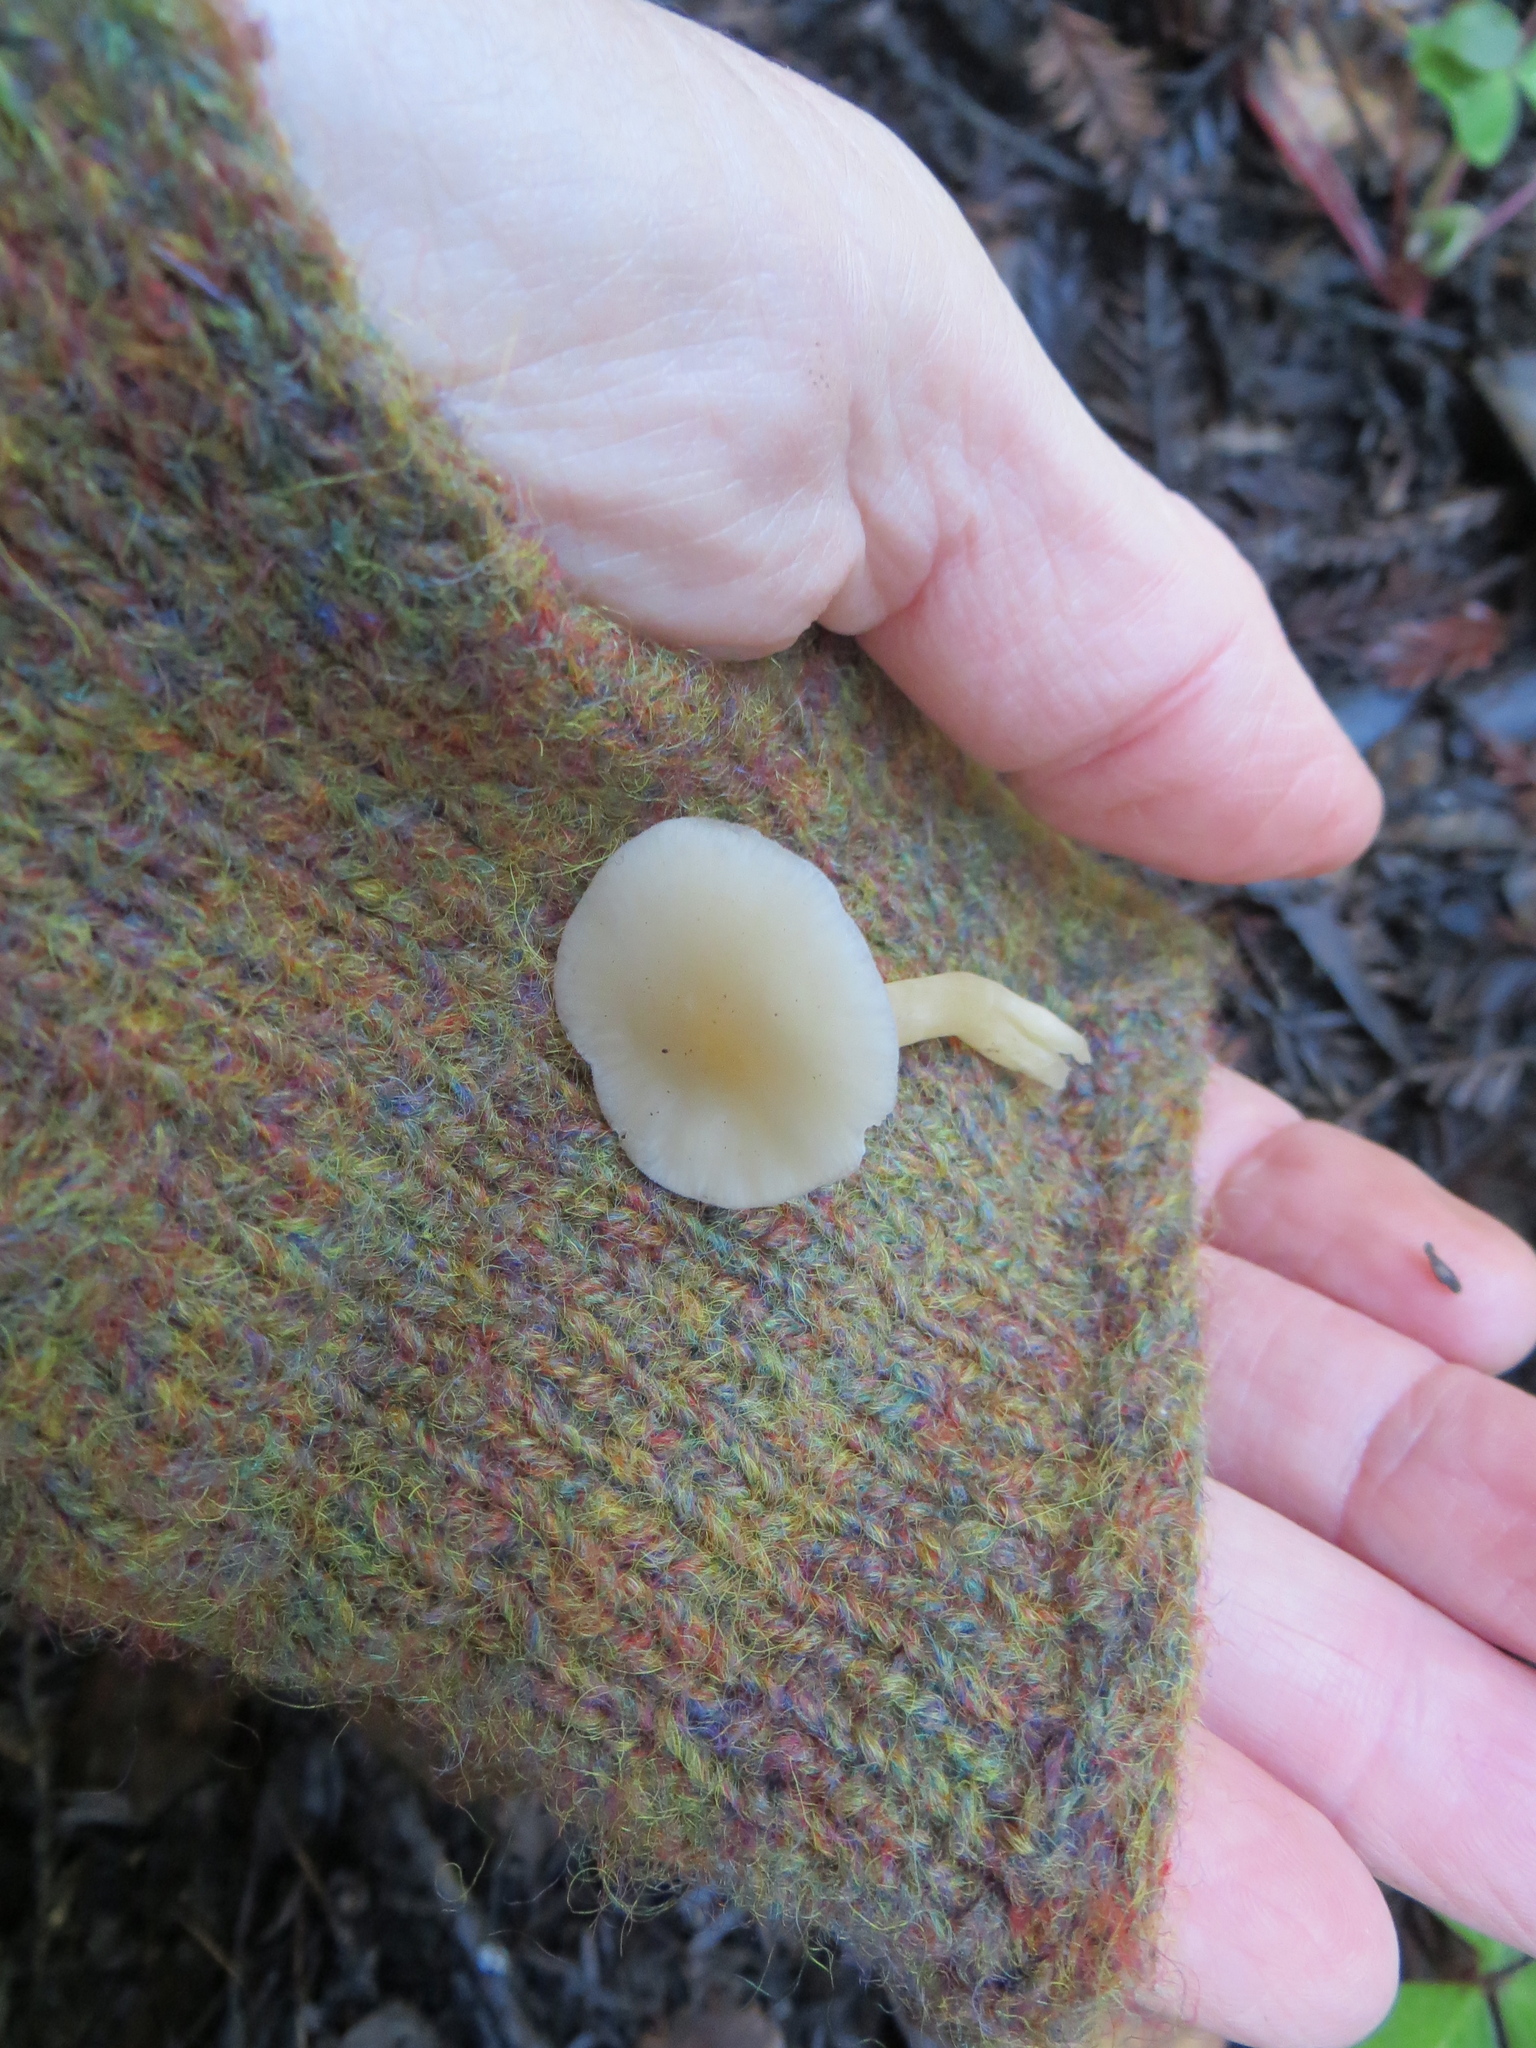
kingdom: Fungi
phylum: Basidiomycota
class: Agaricomycetes
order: Agaricales
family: Tricholomataceae
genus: Clitocybe
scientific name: Clitocybe fragrans
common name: Fragrant funnel
